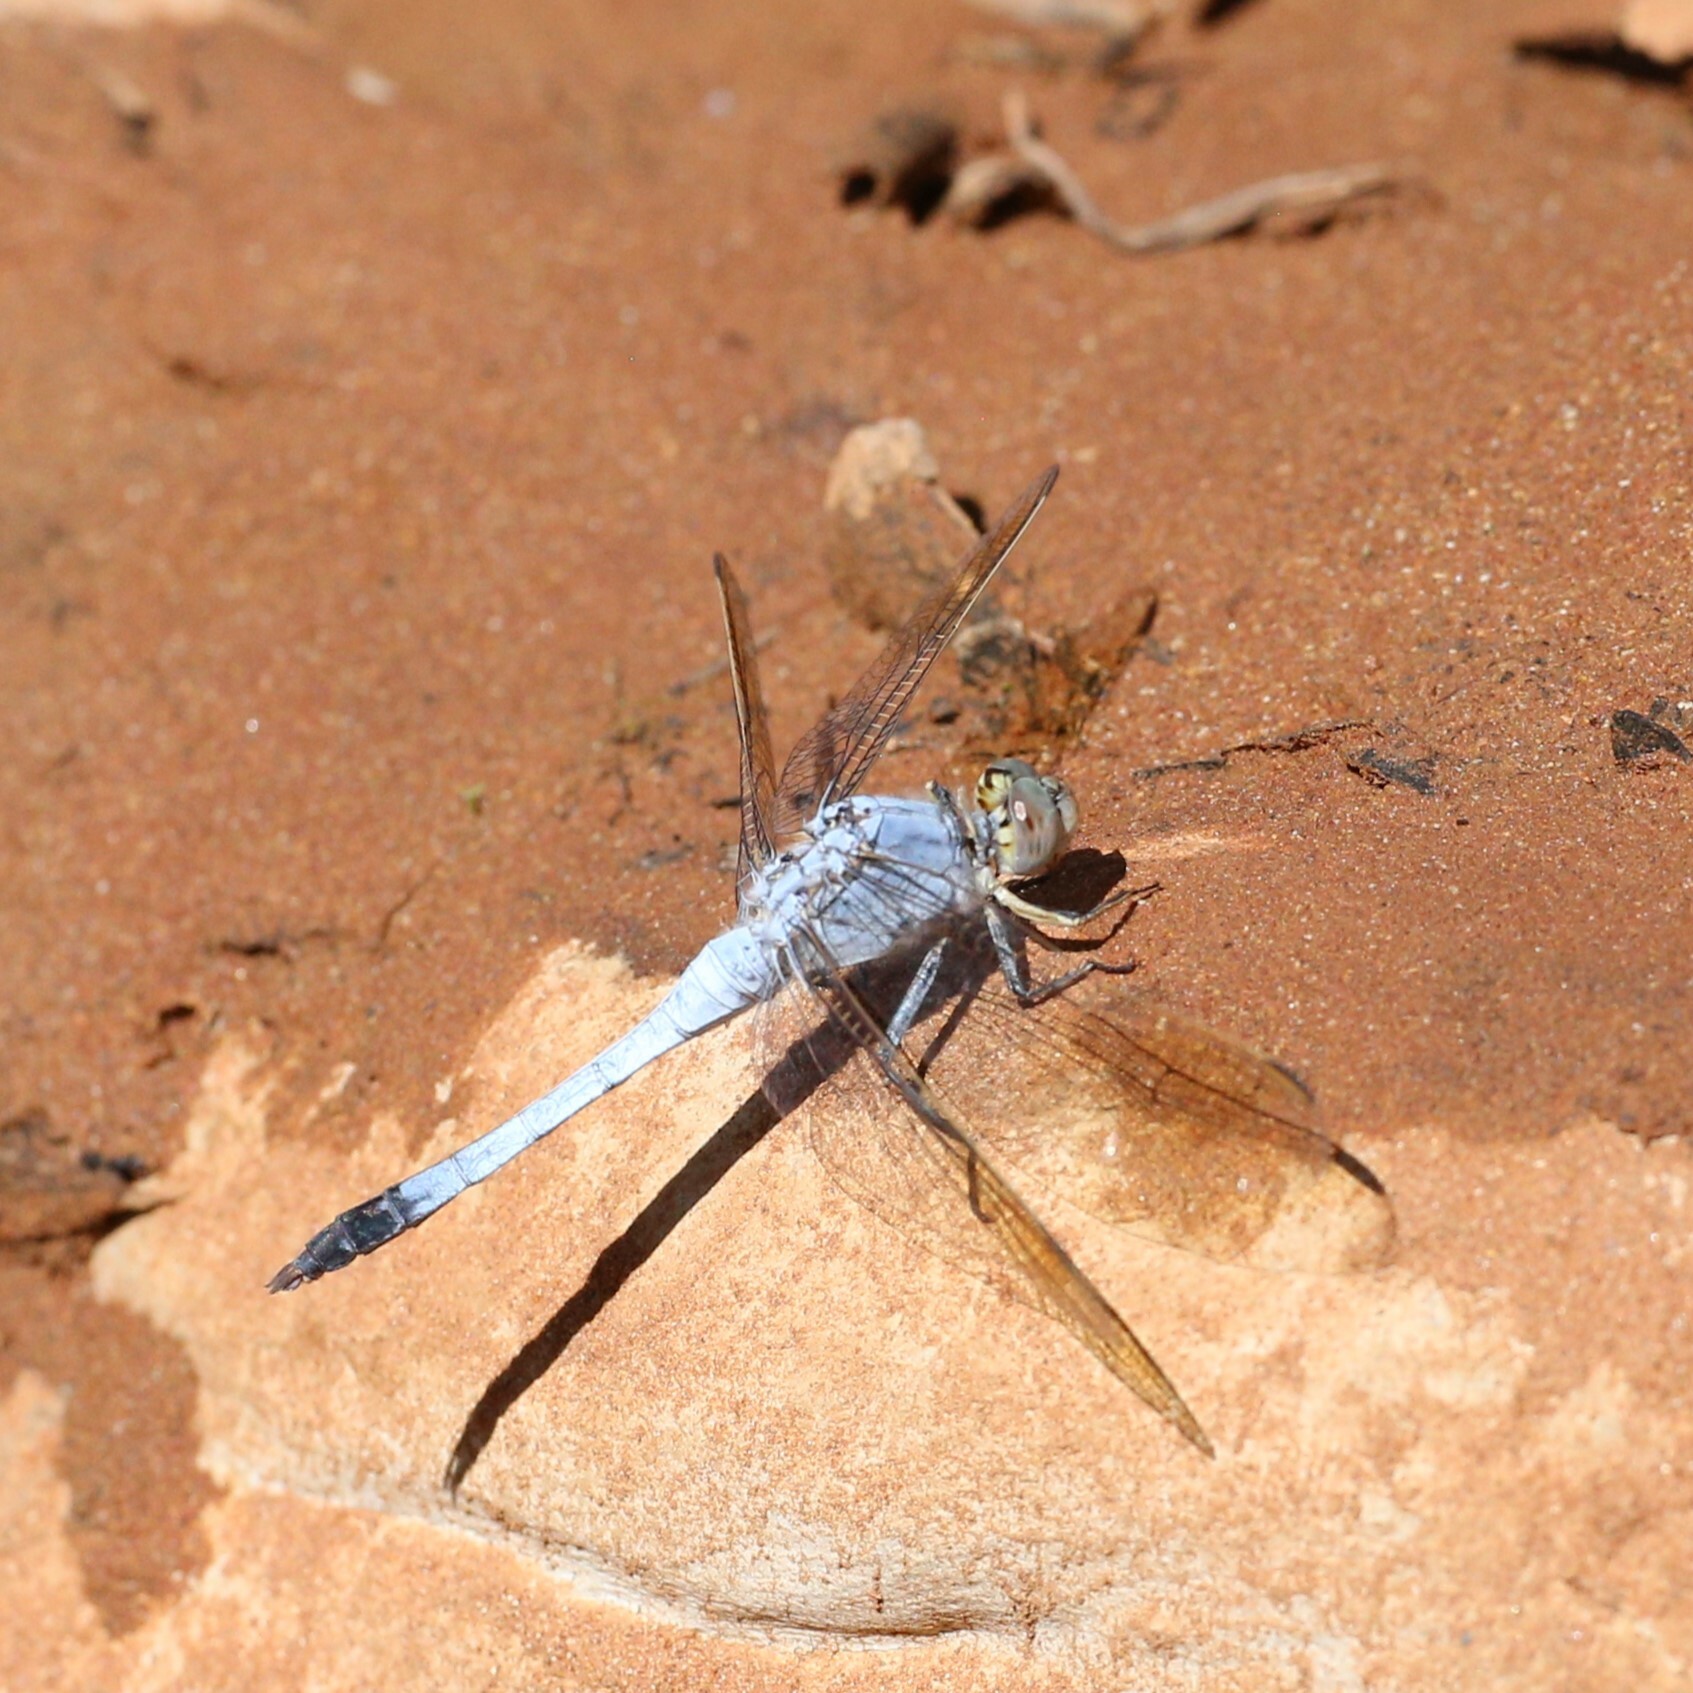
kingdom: Animalia
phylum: Arthropoda
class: Insecta
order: Odonata
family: Libellulidae
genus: Orthetrum
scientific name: Orthetrum caledonicum
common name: Blue skimmer
